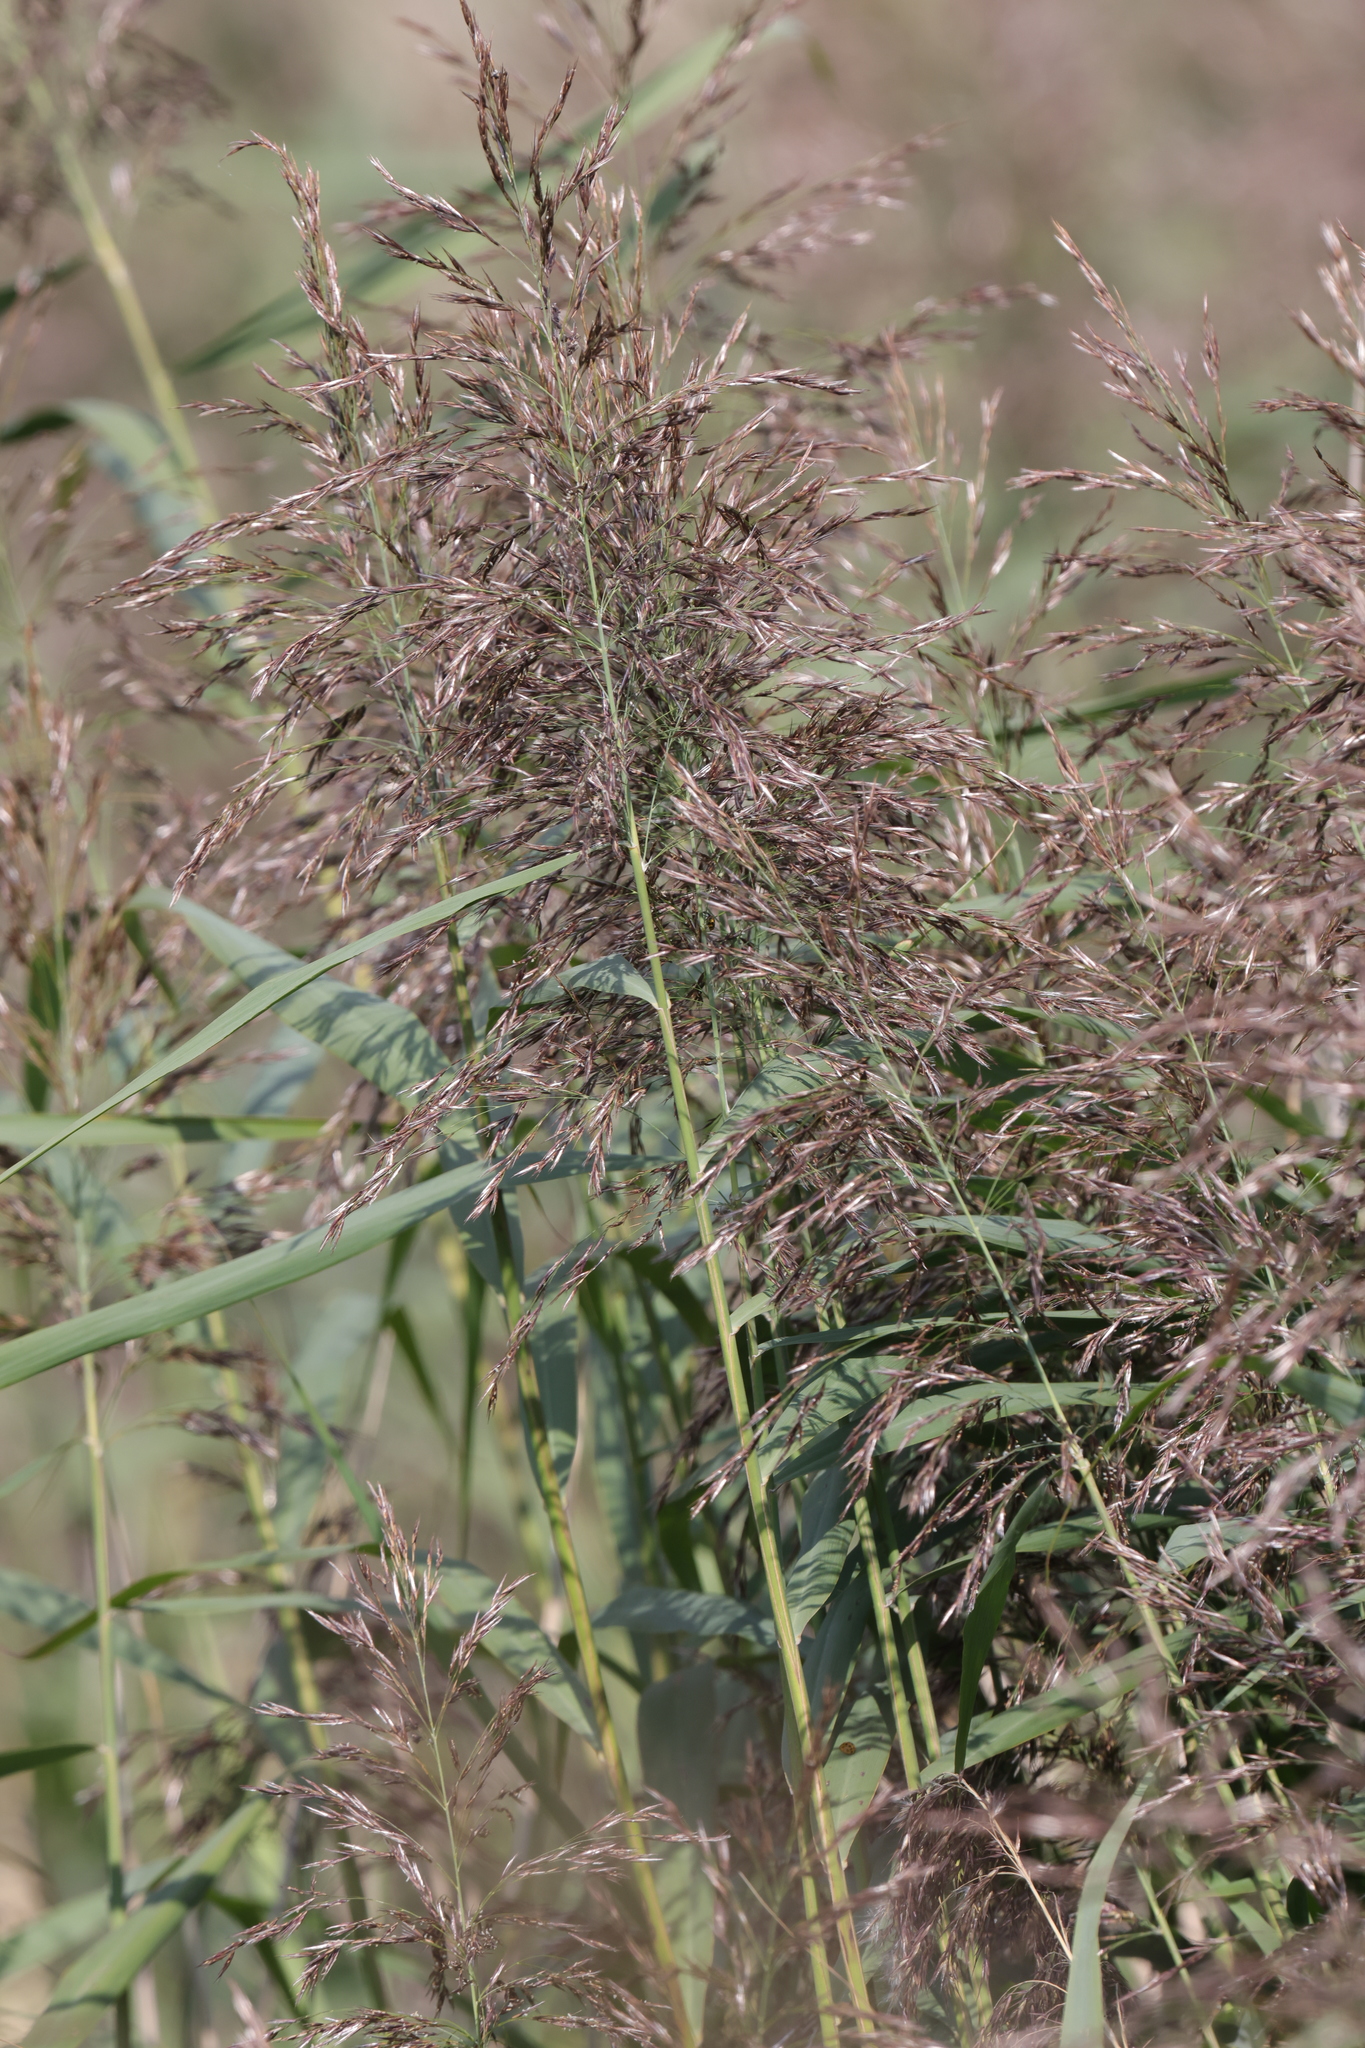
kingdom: Plantae
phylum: Tracheophyta
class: Liliopsida
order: Poales
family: Poaceae
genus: Phragmites
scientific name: Phragmites australis
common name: Common reed
